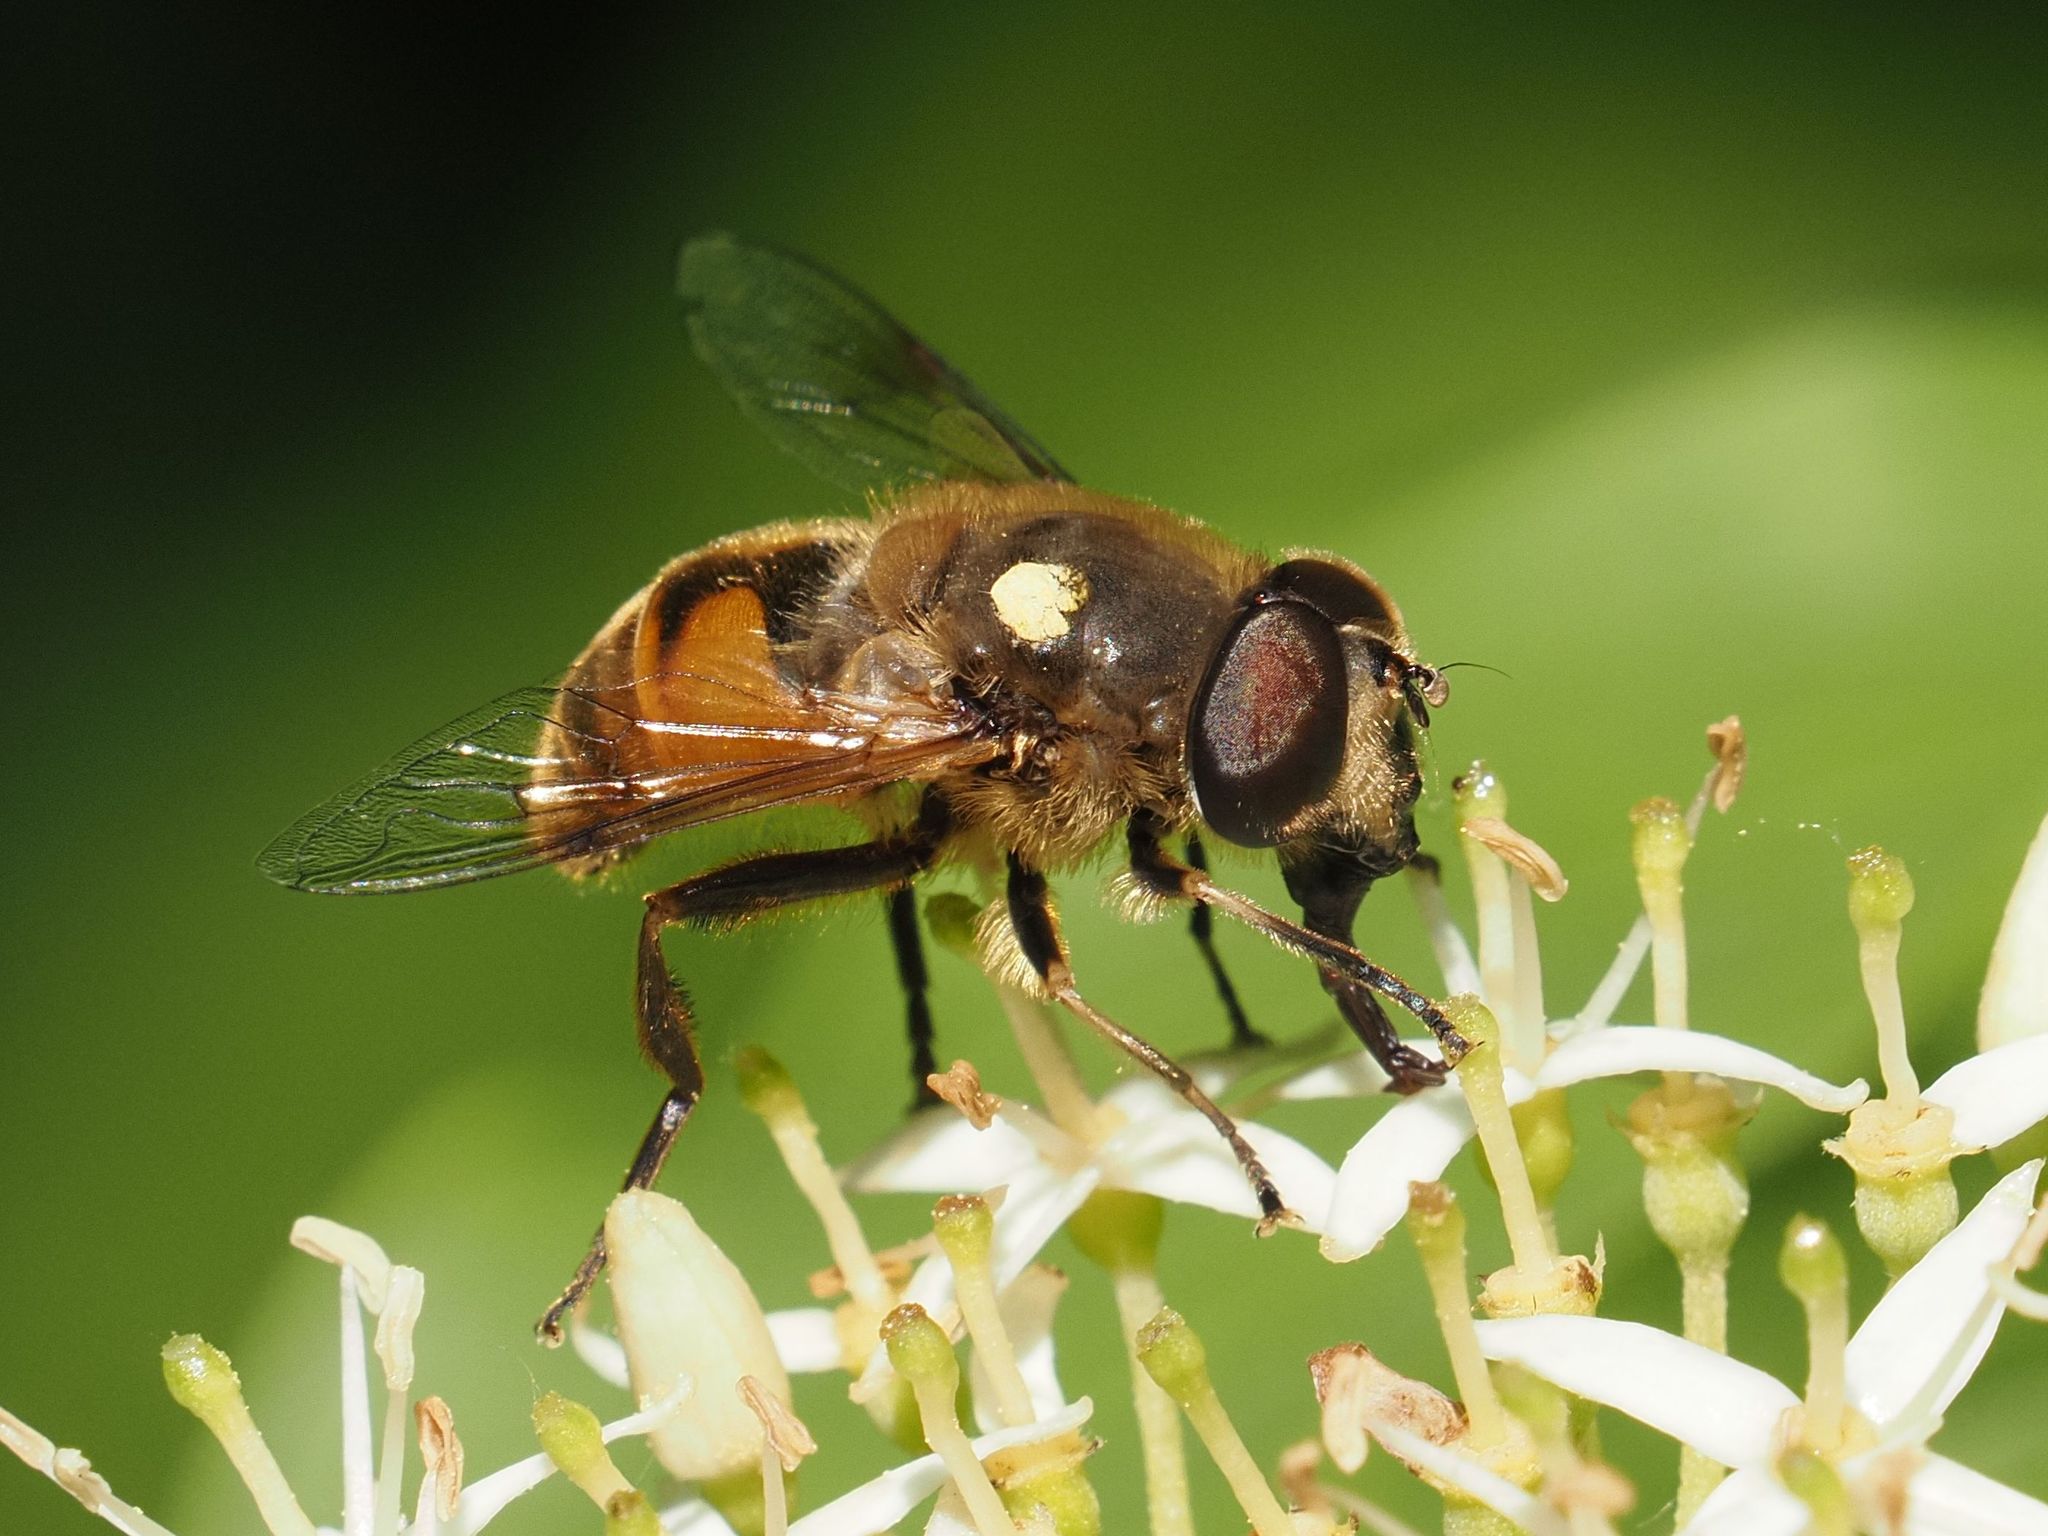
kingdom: Animalia
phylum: Arthropoda
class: Insecta
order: Diptera
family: Syrphidae
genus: Eristalis
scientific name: Eristalis tenax
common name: Drone fly
